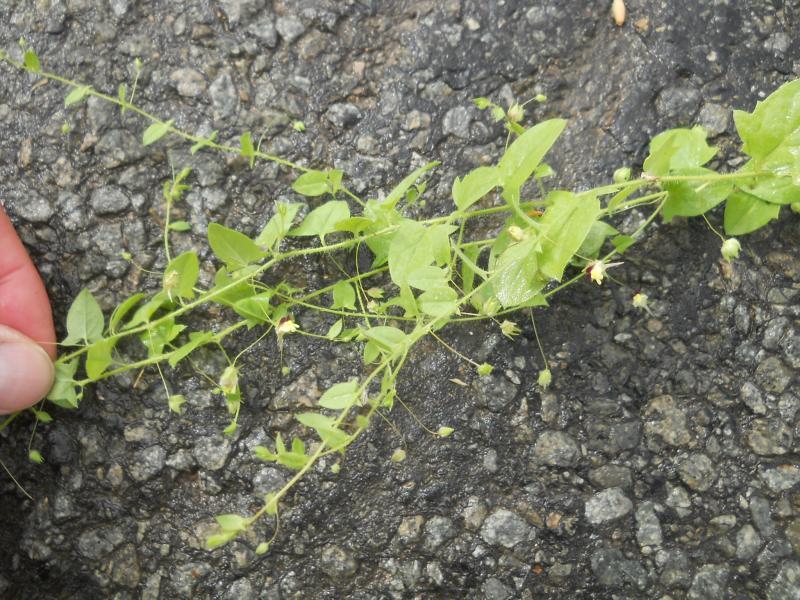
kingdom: Plantae
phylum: Tracheophyta
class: Magnoliopsida
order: Lamiales
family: Plantaginaceae
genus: Kickxia
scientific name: Kickxia elatine
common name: Sharp-leaved fluellen
